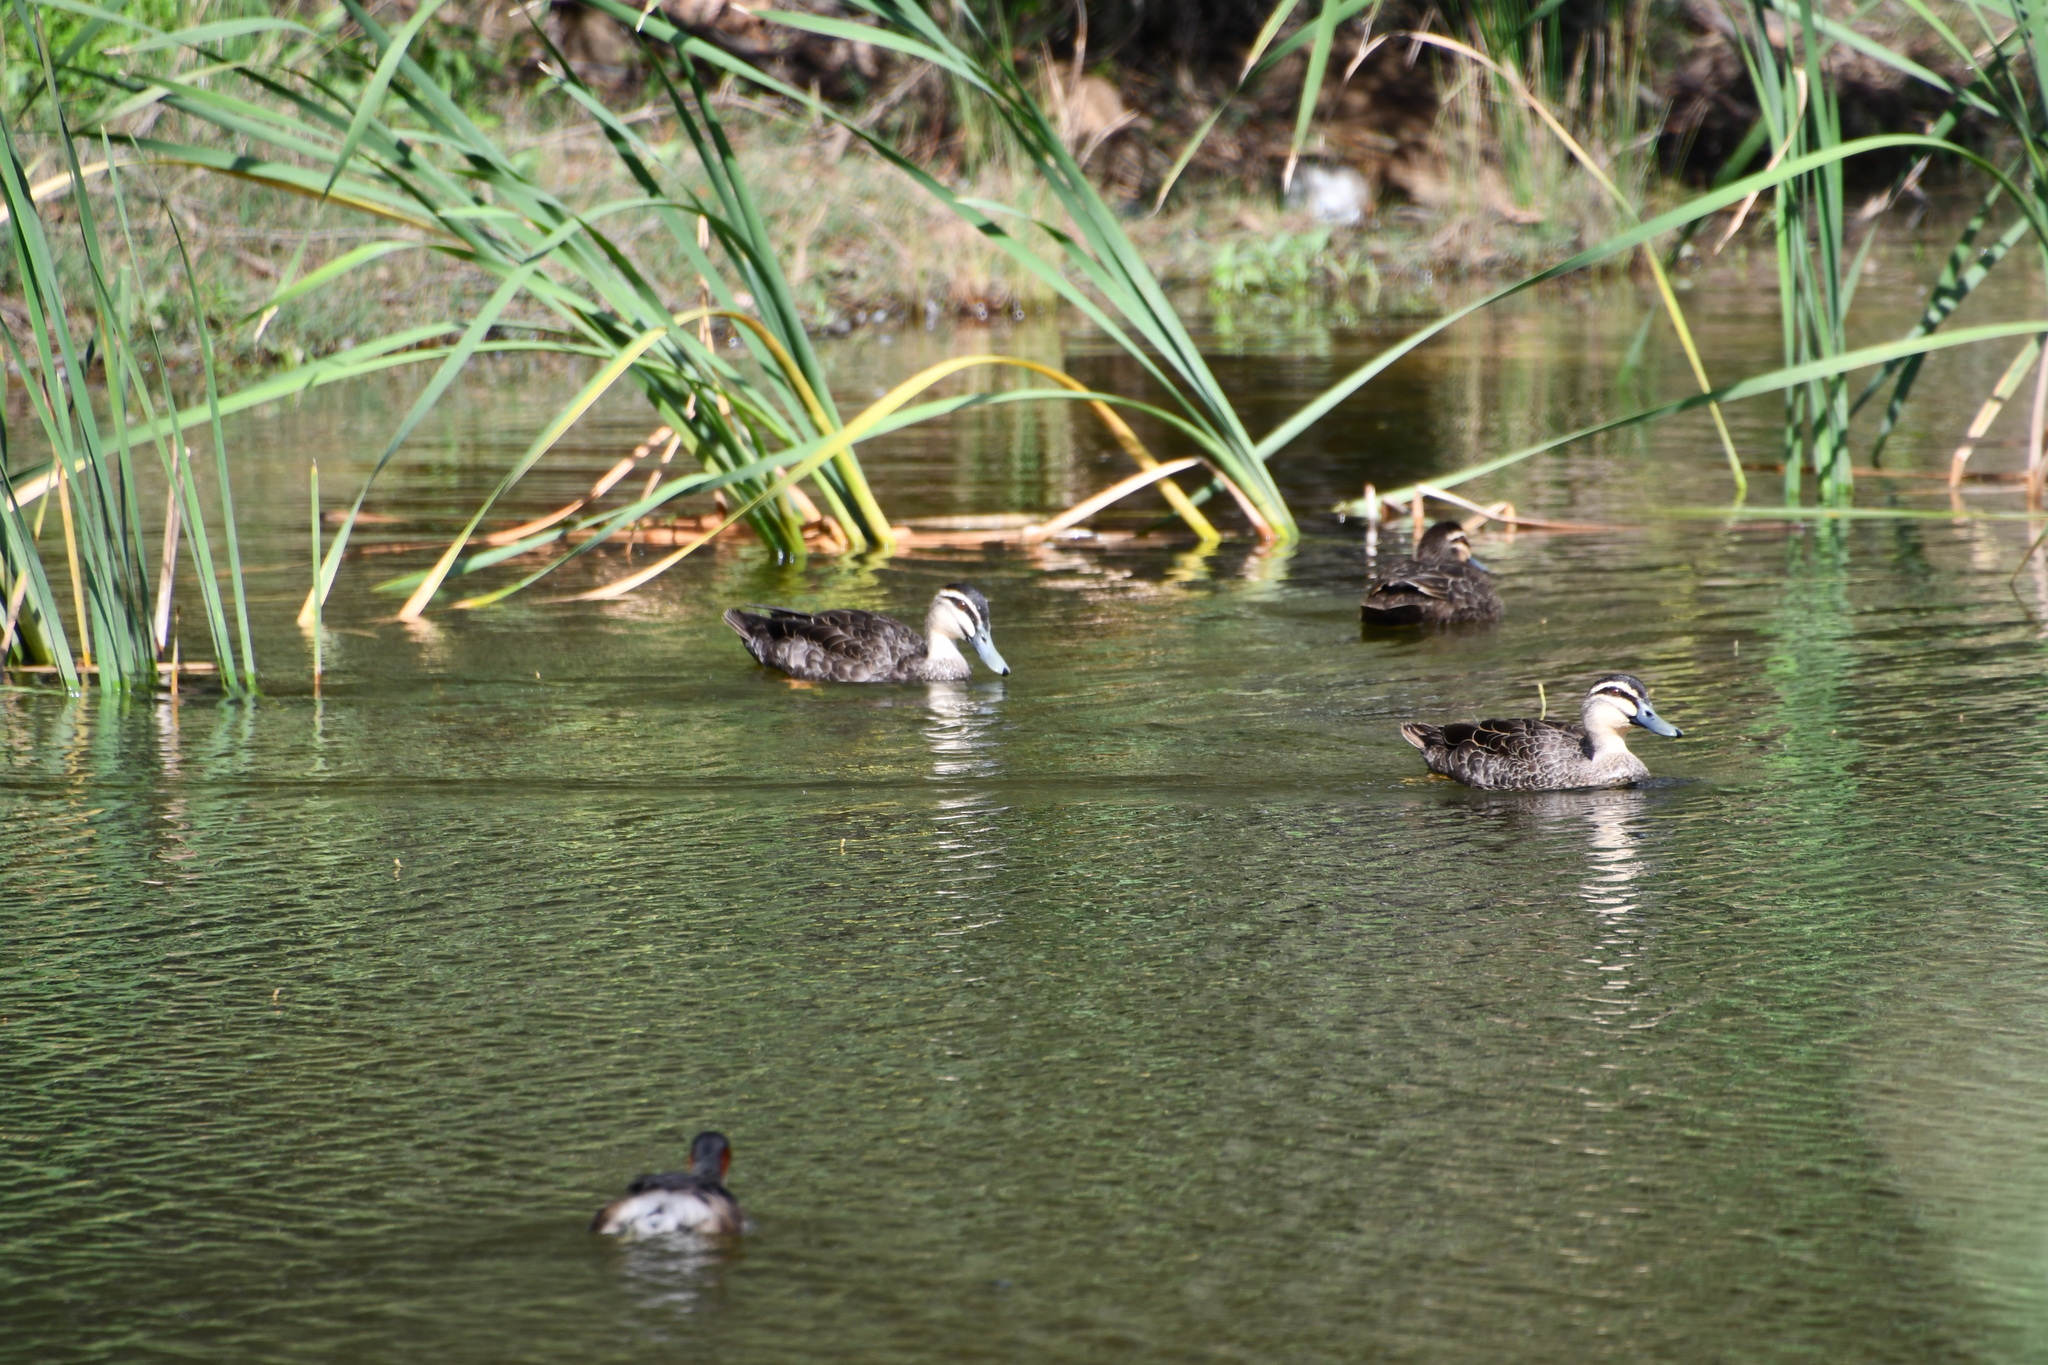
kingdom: Animalia
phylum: Chordata
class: Aves
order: Anseriformes
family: Anatidae
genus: Anas
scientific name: Anas
